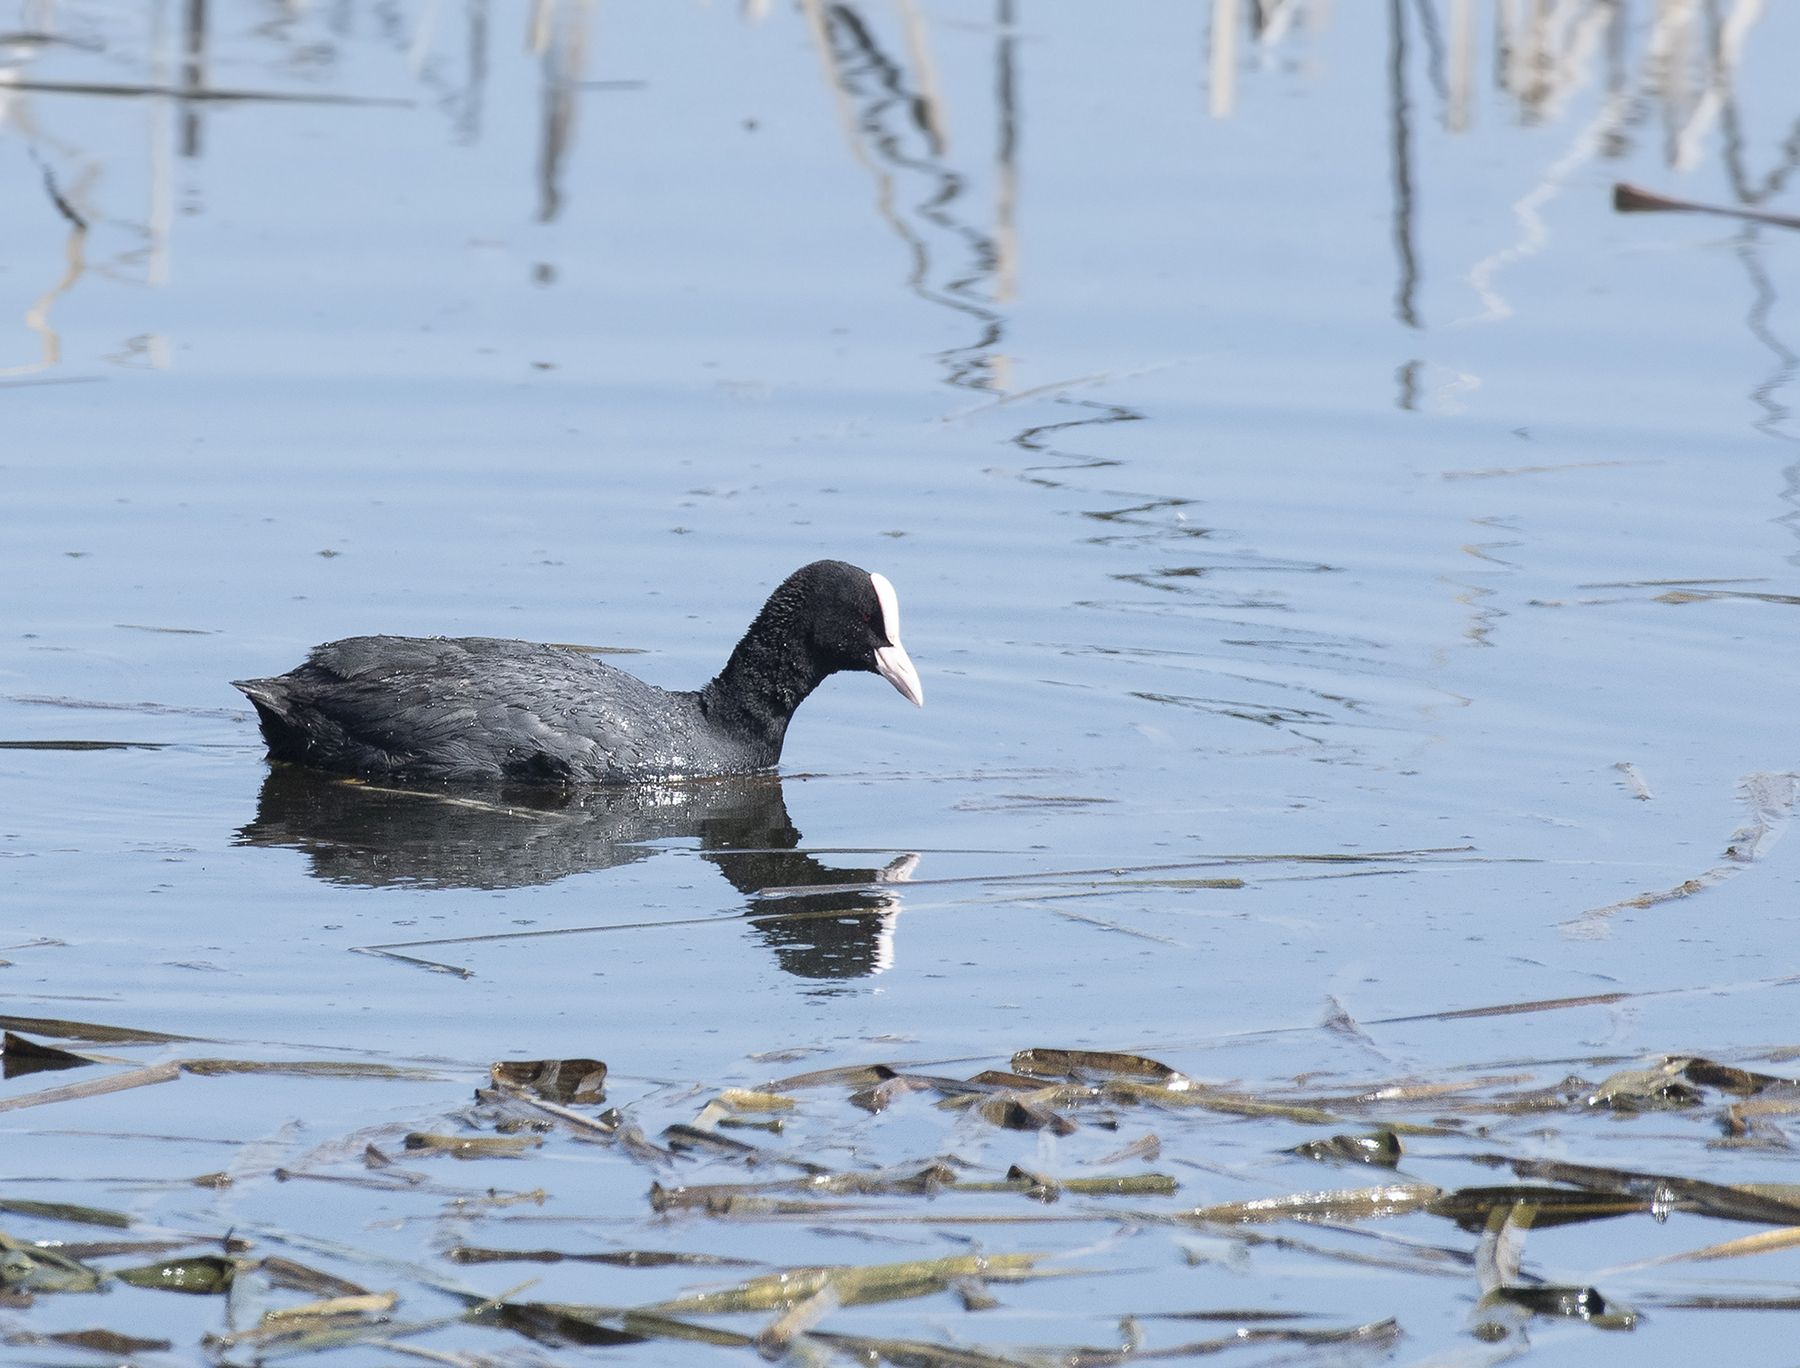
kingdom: Animalia
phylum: Chordata
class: Aves
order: Gruiformes
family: Rallidae
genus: Fulica
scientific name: Fulica atra
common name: Eurasian coot
